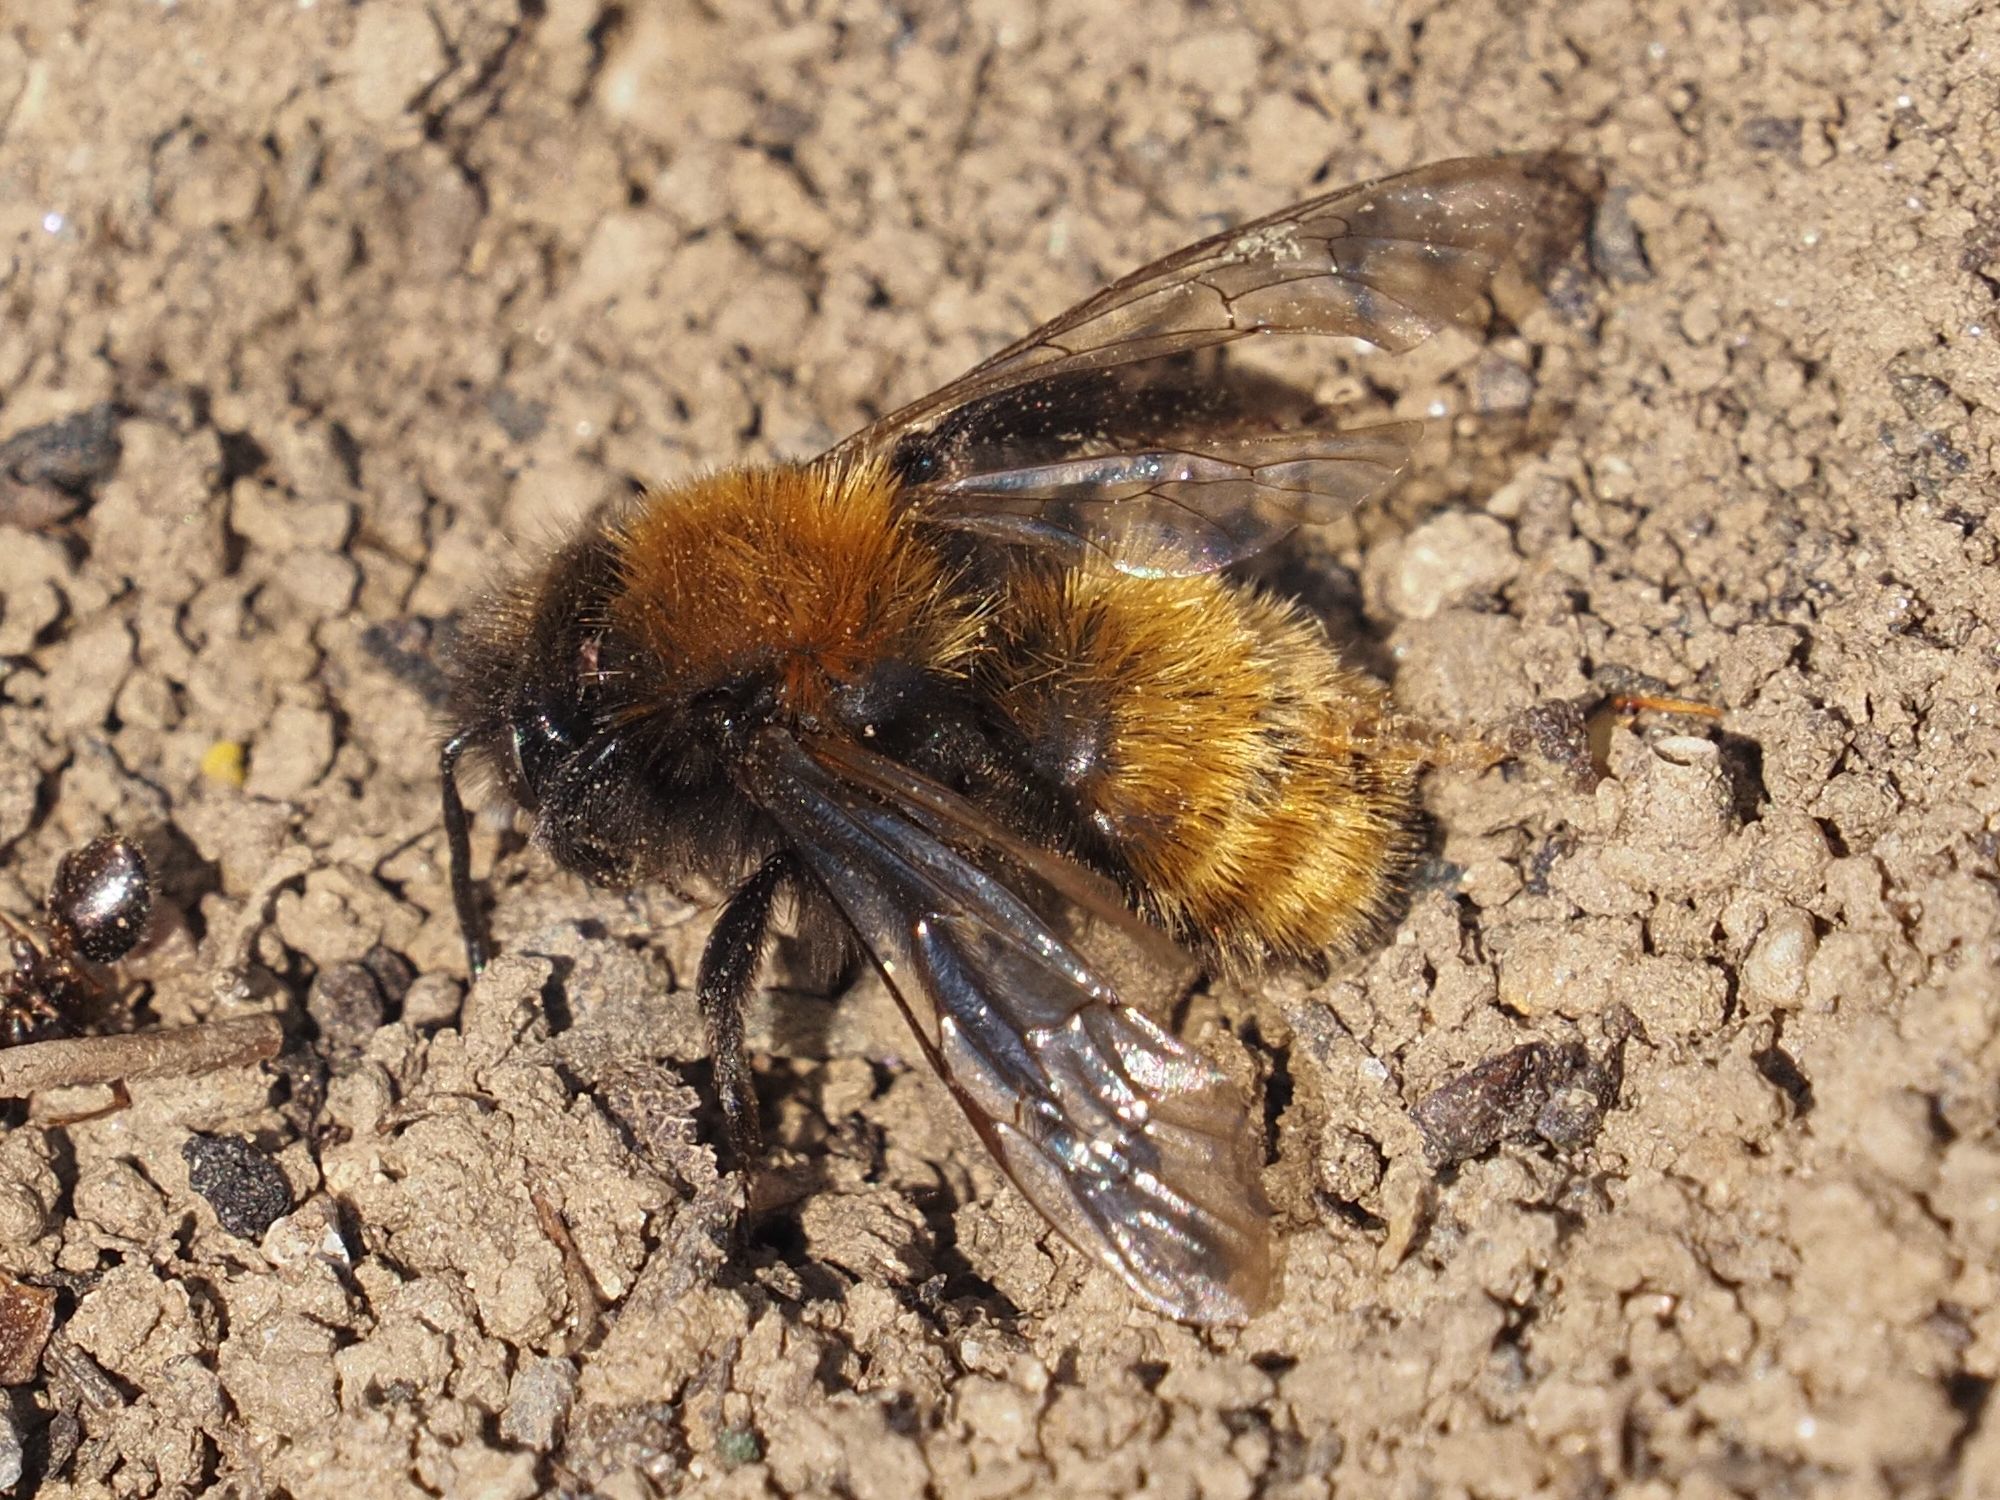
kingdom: Animalia
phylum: Arthropoda
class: Insecta
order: Hymenoptera
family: Andrenidae
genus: Andrena
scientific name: Andrena fulva
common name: Tawny mining bee
